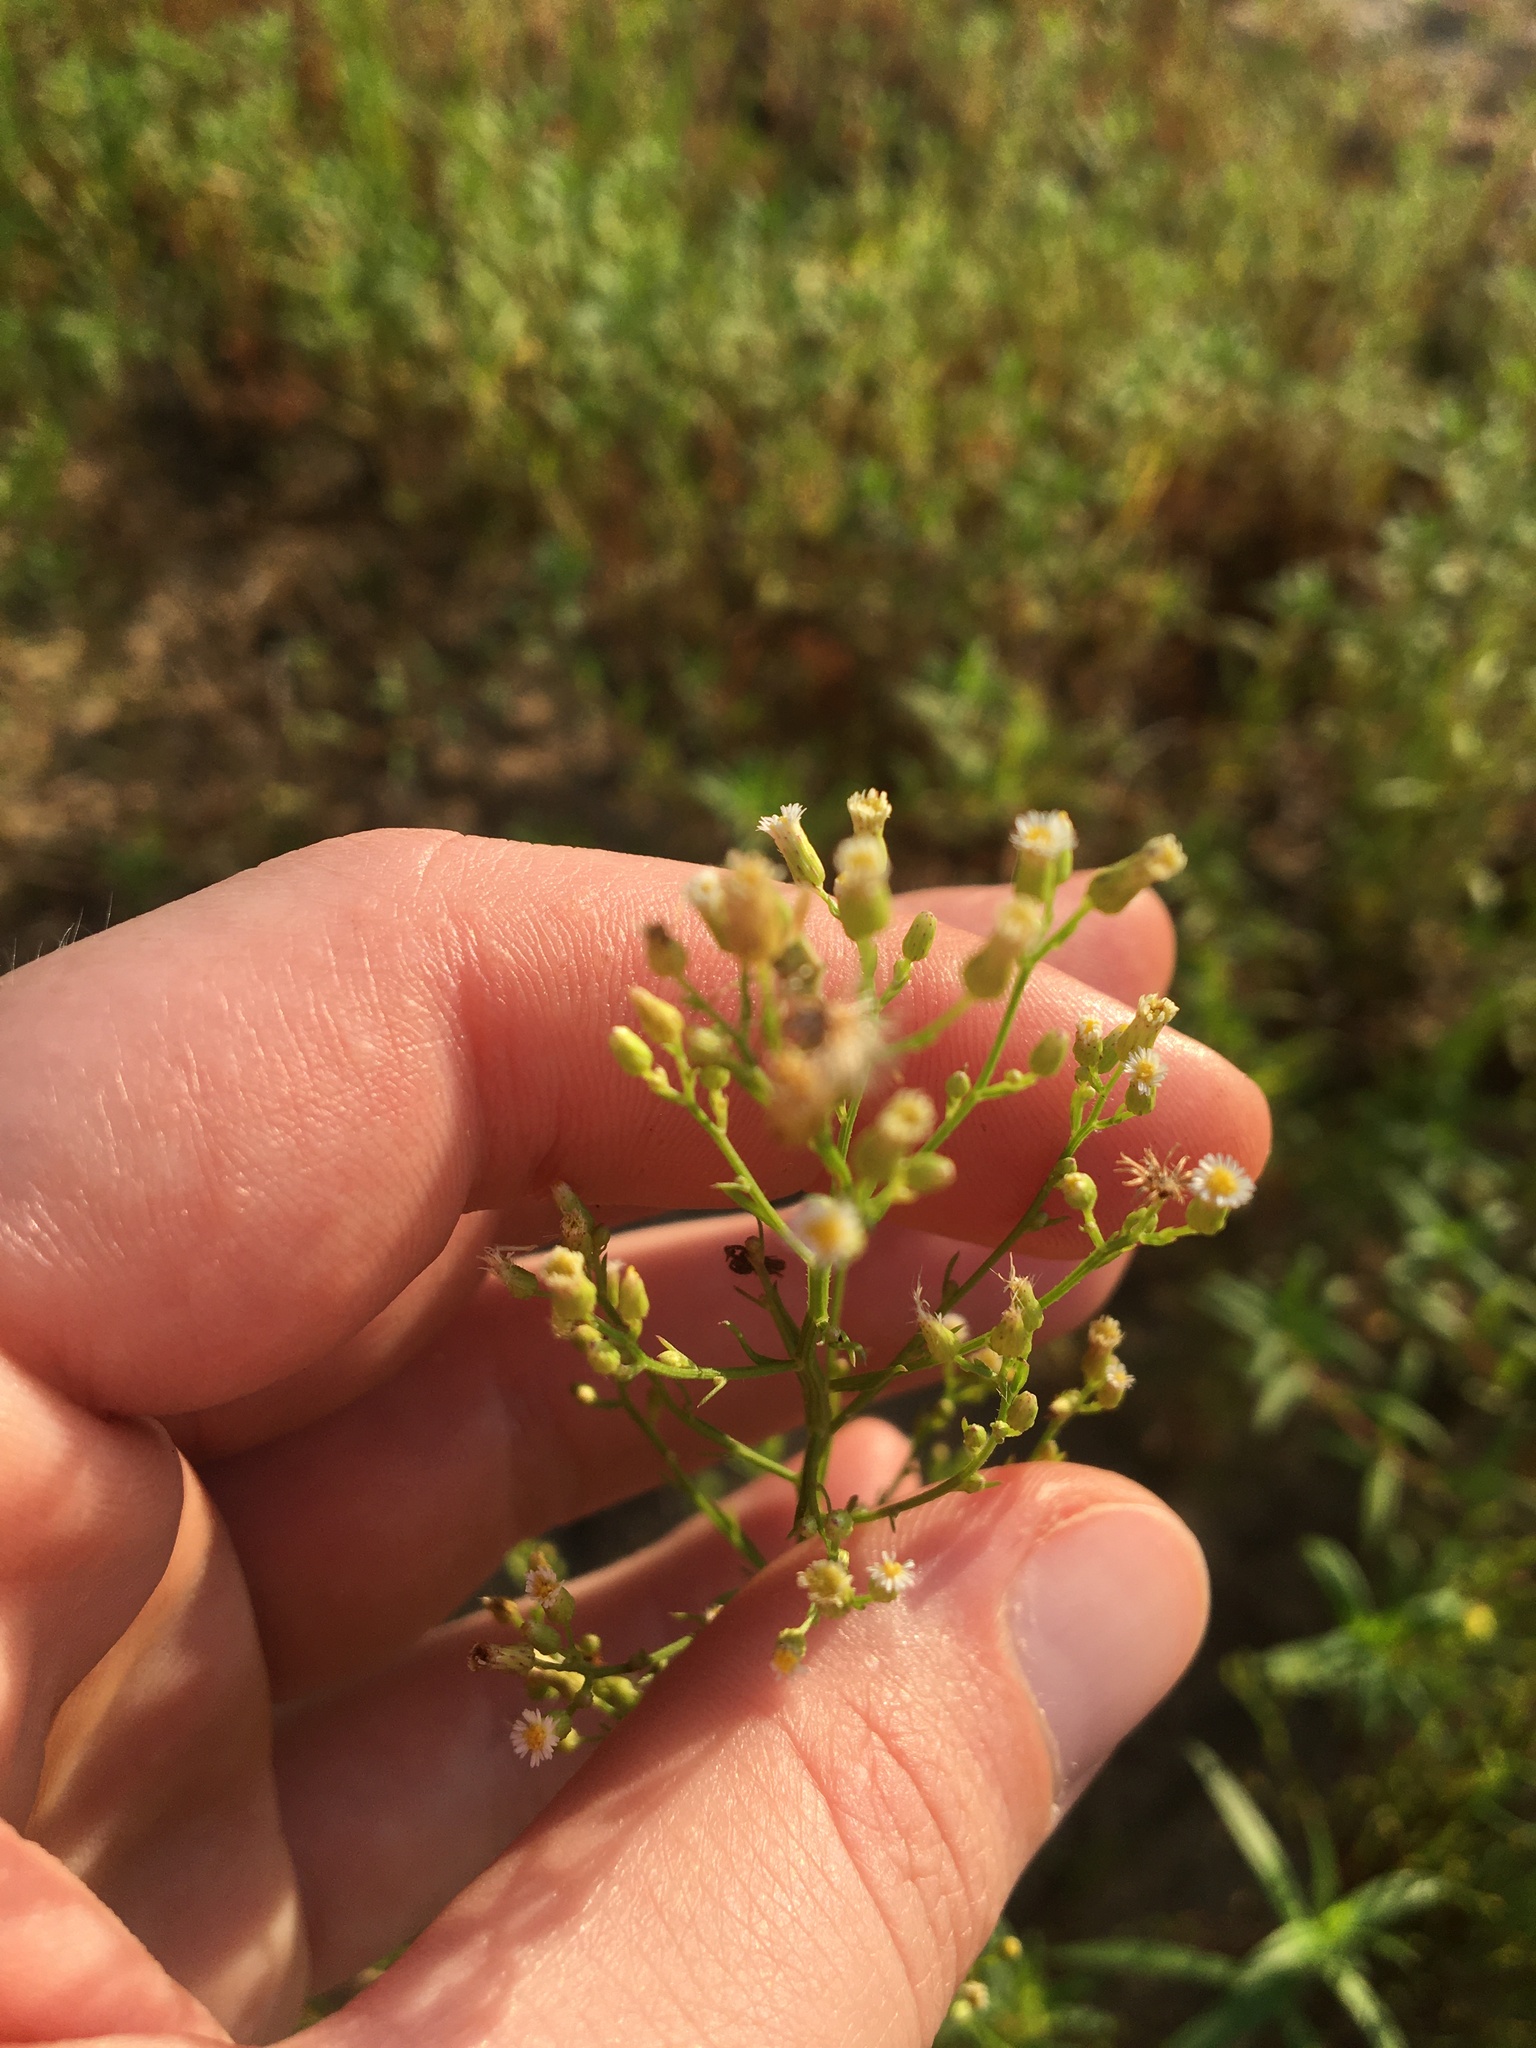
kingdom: Plantae
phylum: Tracheophyta
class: Magnoliopsida
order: Asterales
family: Asteraceae
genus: Erigeron
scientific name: Erigeron canadensis
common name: Canadian fleabane
